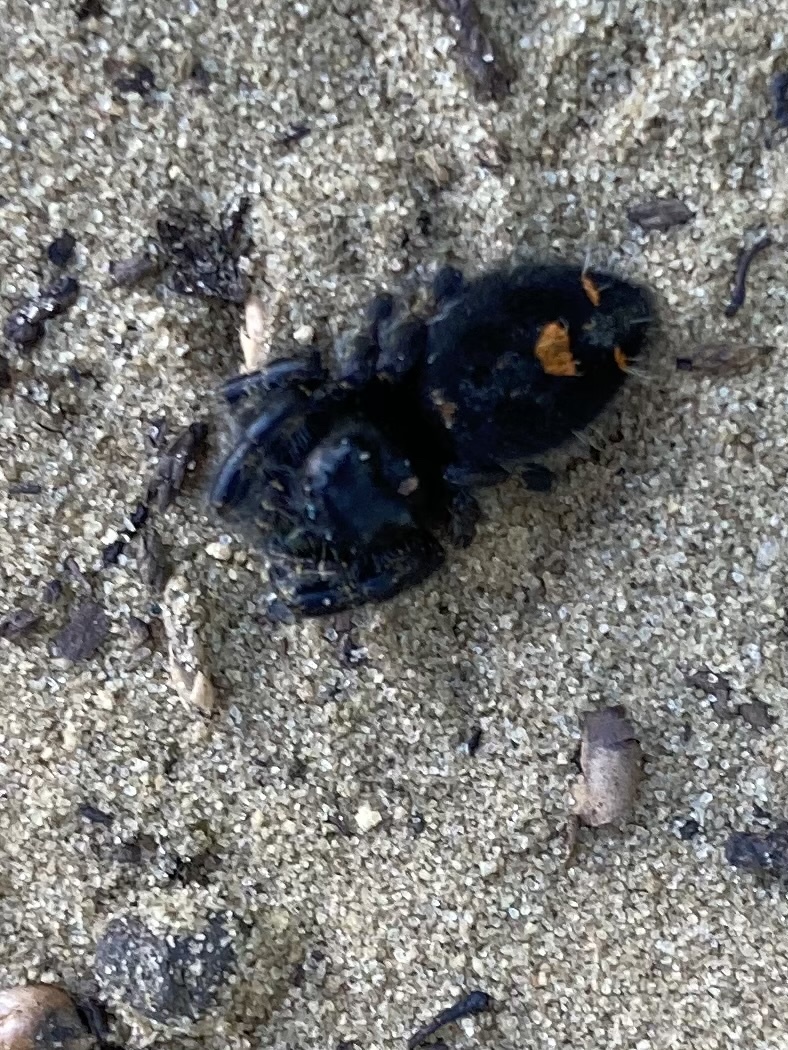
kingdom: Animalia
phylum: Arthropoda
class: Arachnida
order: Araneae
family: Salticidae
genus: Phidippus
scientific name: Phidippus audax
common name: Bold jumper
